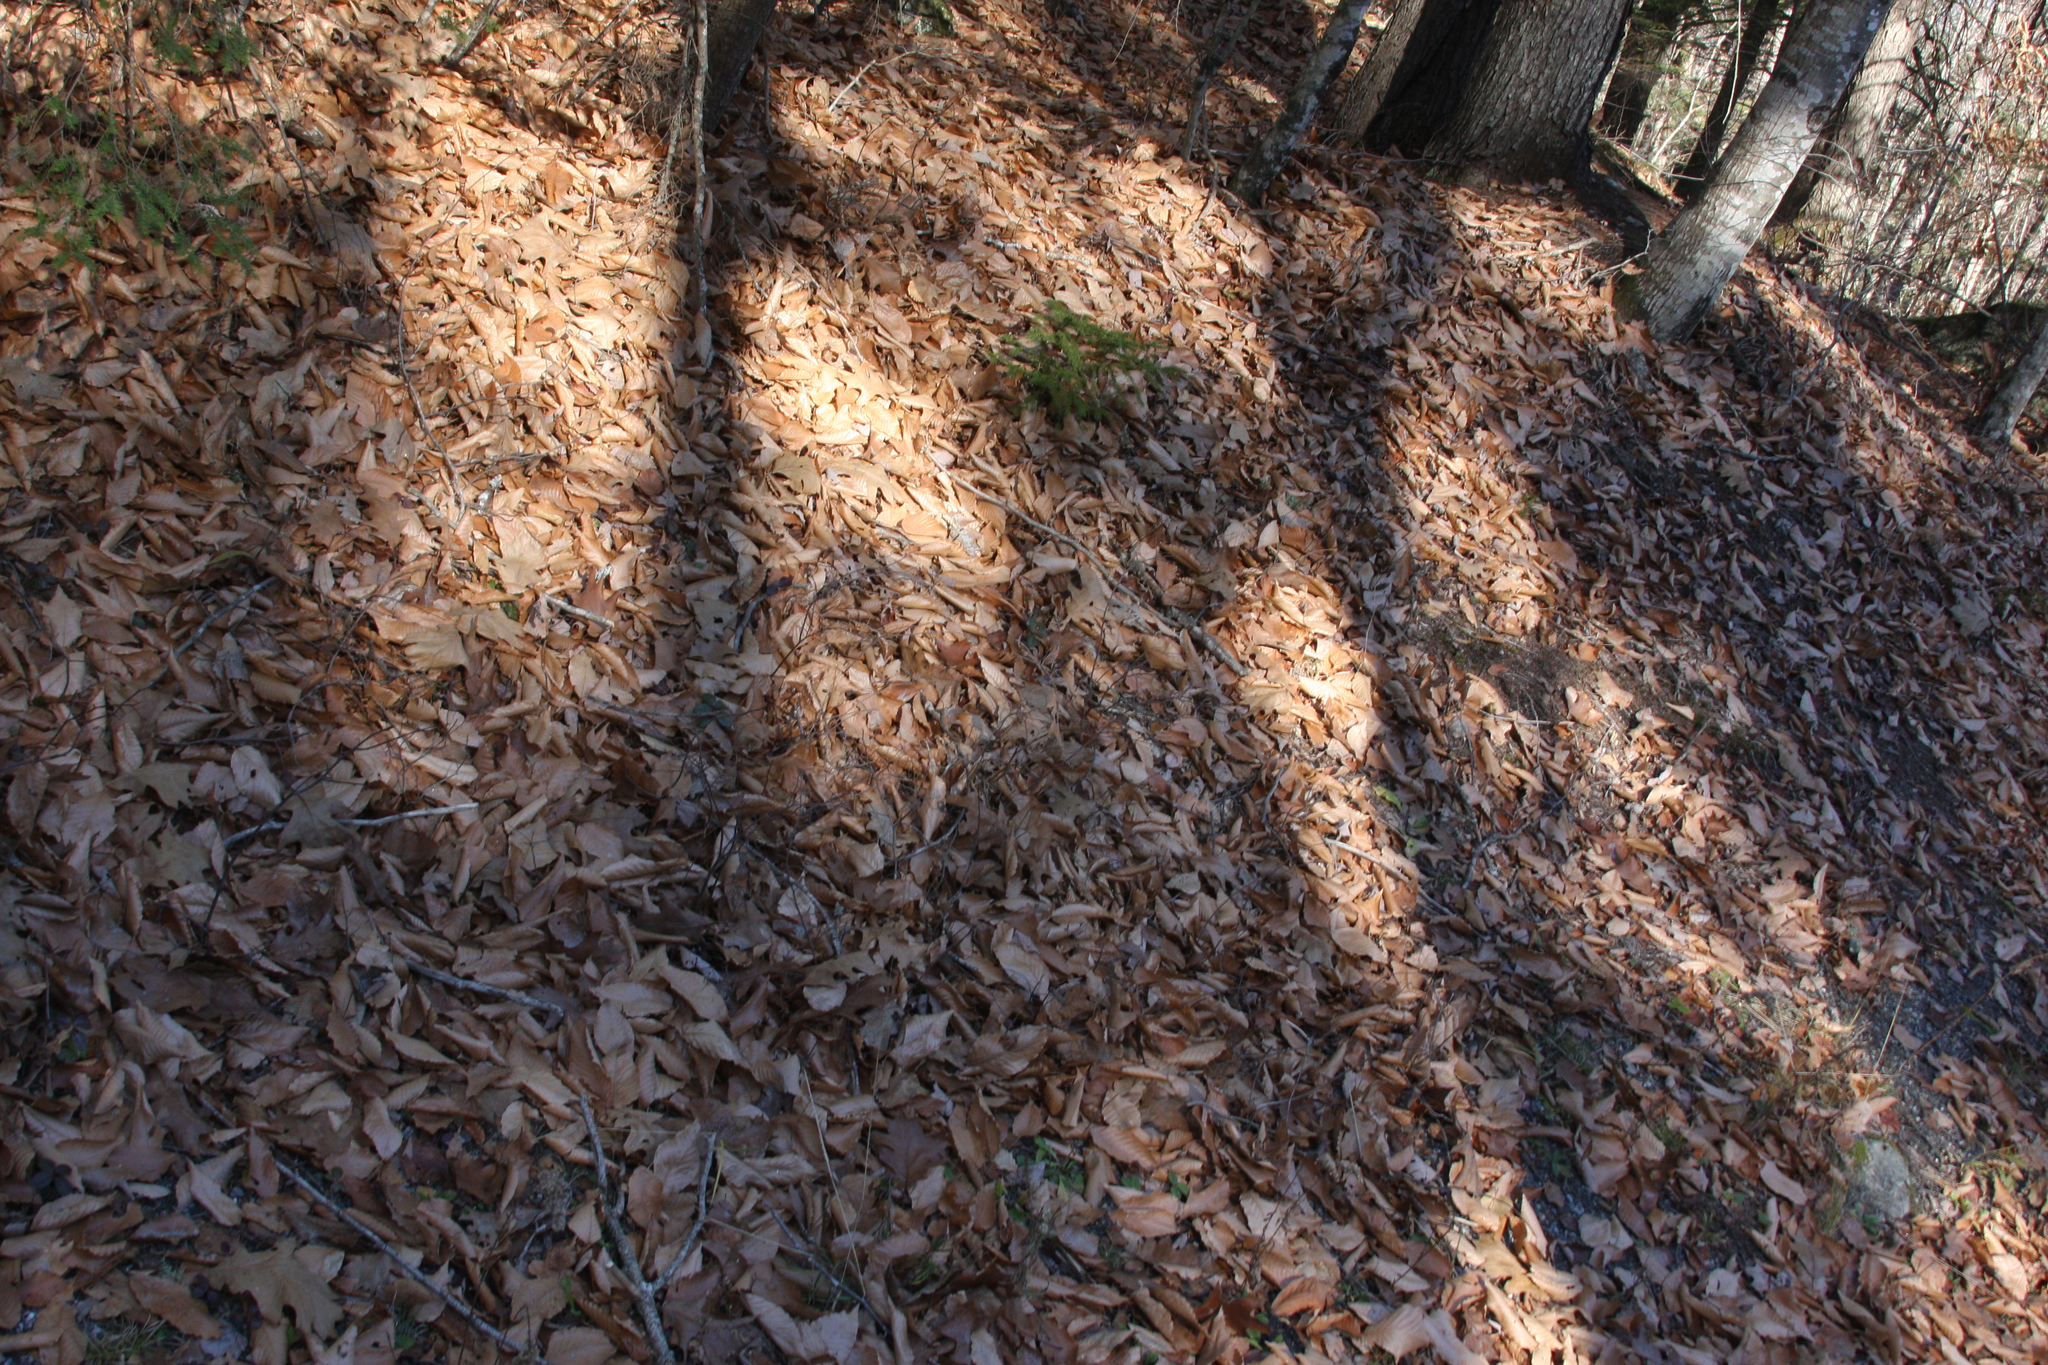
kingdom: Plantae
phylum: Tracheophyta
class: Magnoliopsida
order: Fagales
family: Fagaceae
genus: Fagus
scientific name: Fagus grandifolia
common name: American beech
